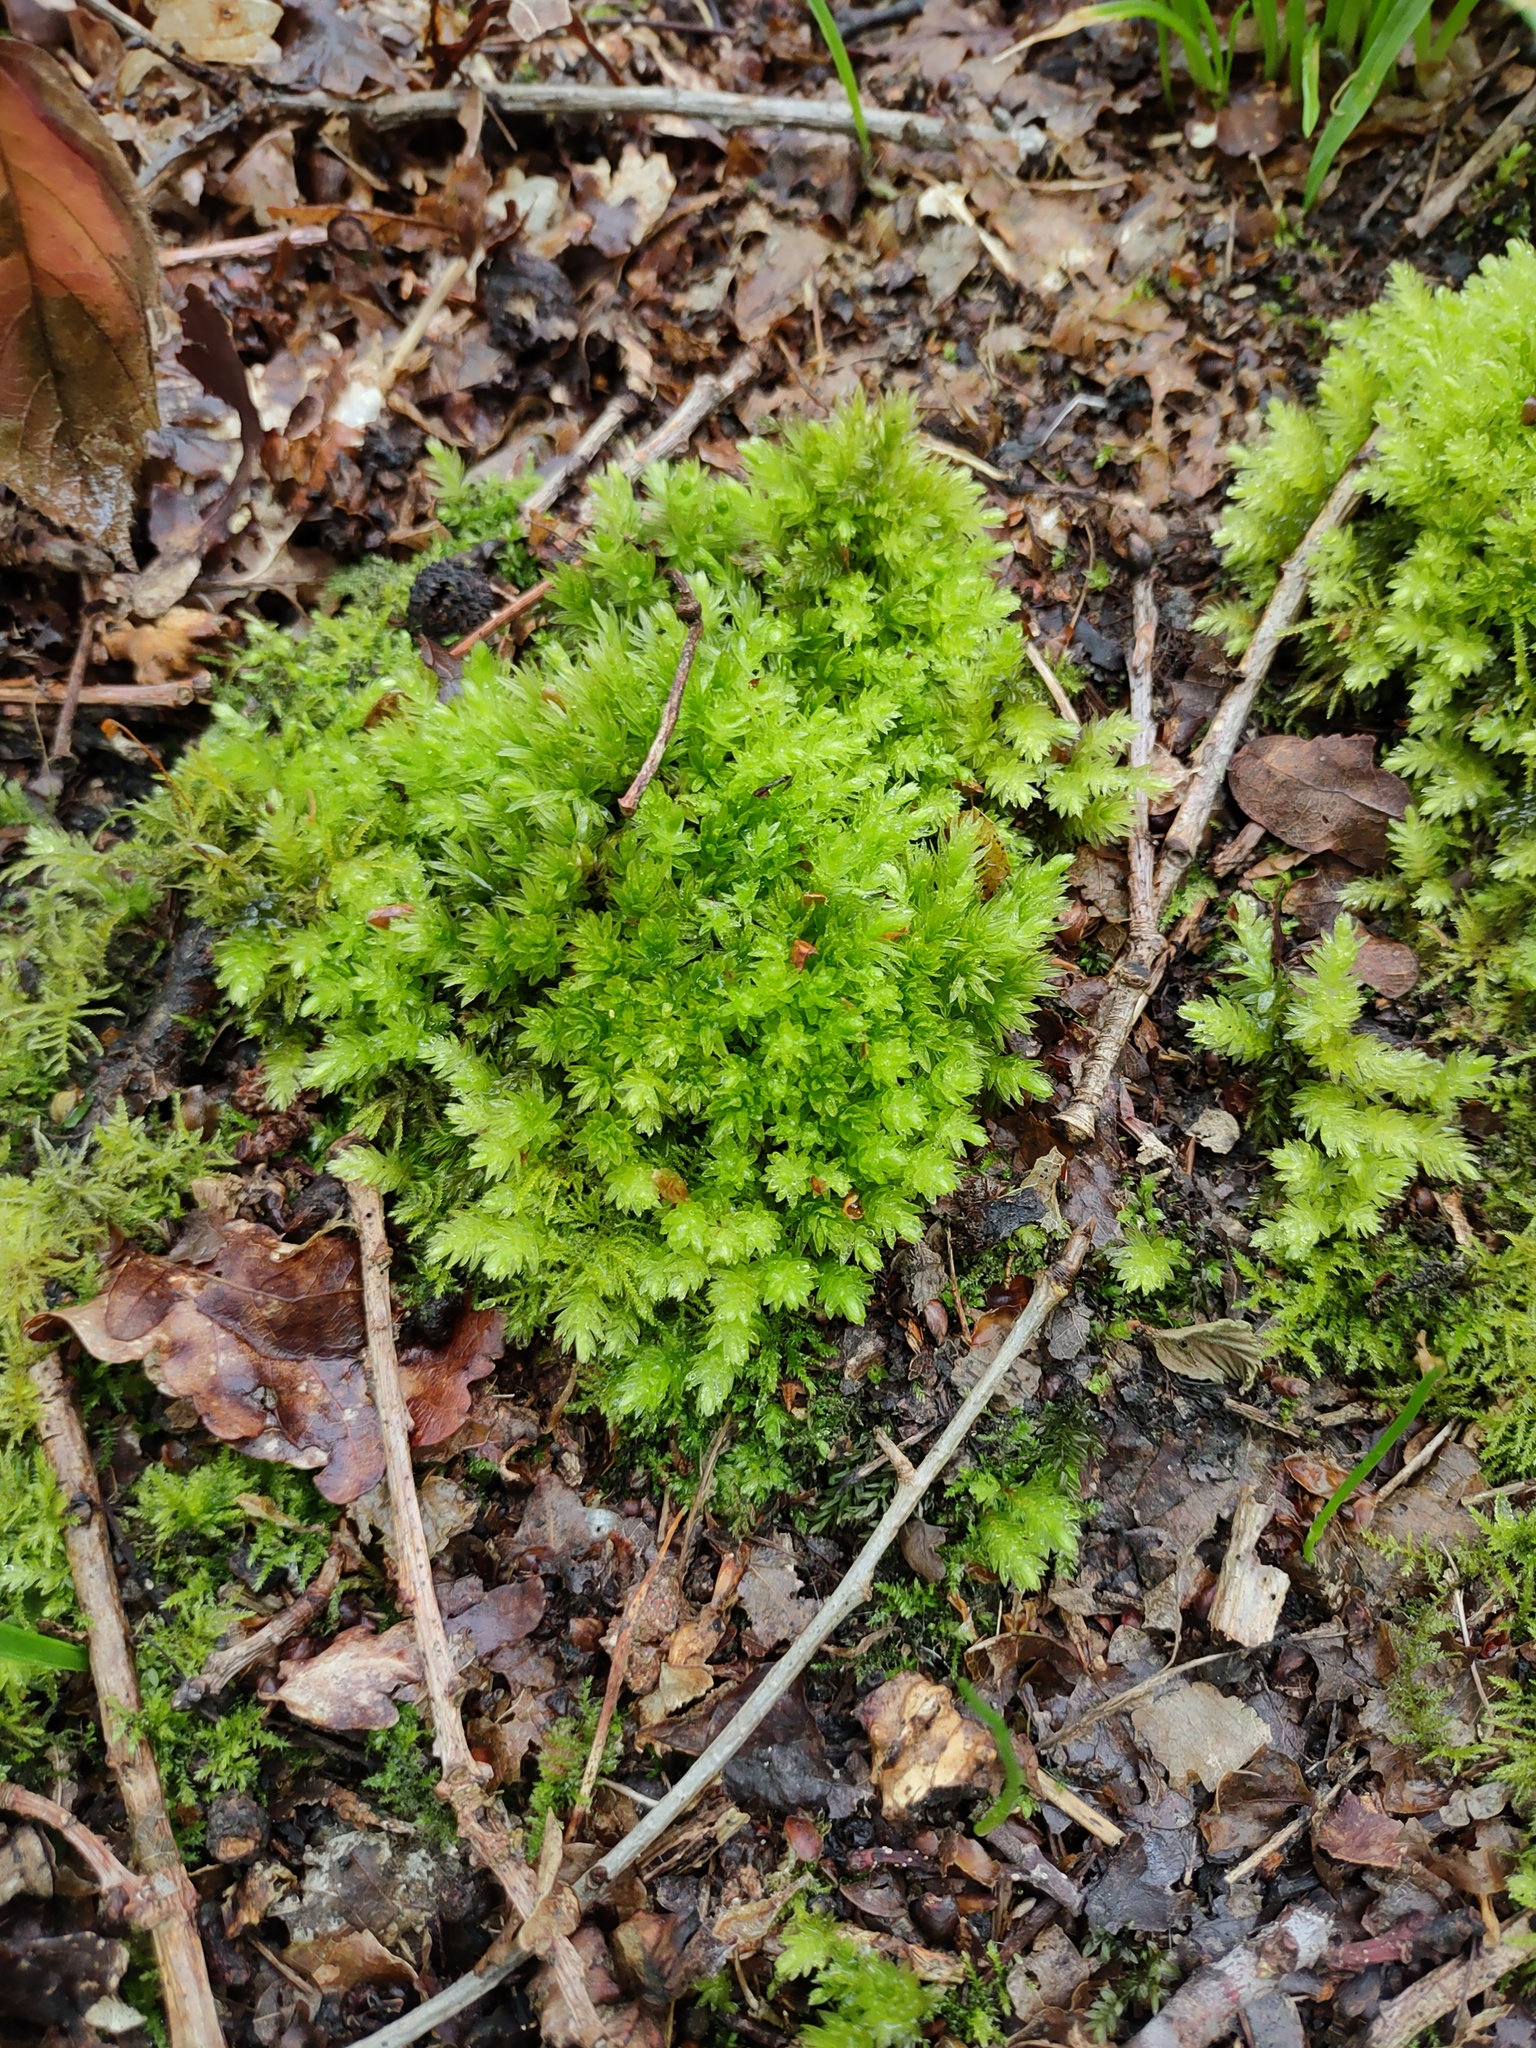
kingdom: Plantae
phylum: Bryophyta
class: Bryopsida
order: Bryales
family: Mniaceae
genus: Mnium
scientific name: Mnium hornum
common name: Swan's-neck leafy moss
